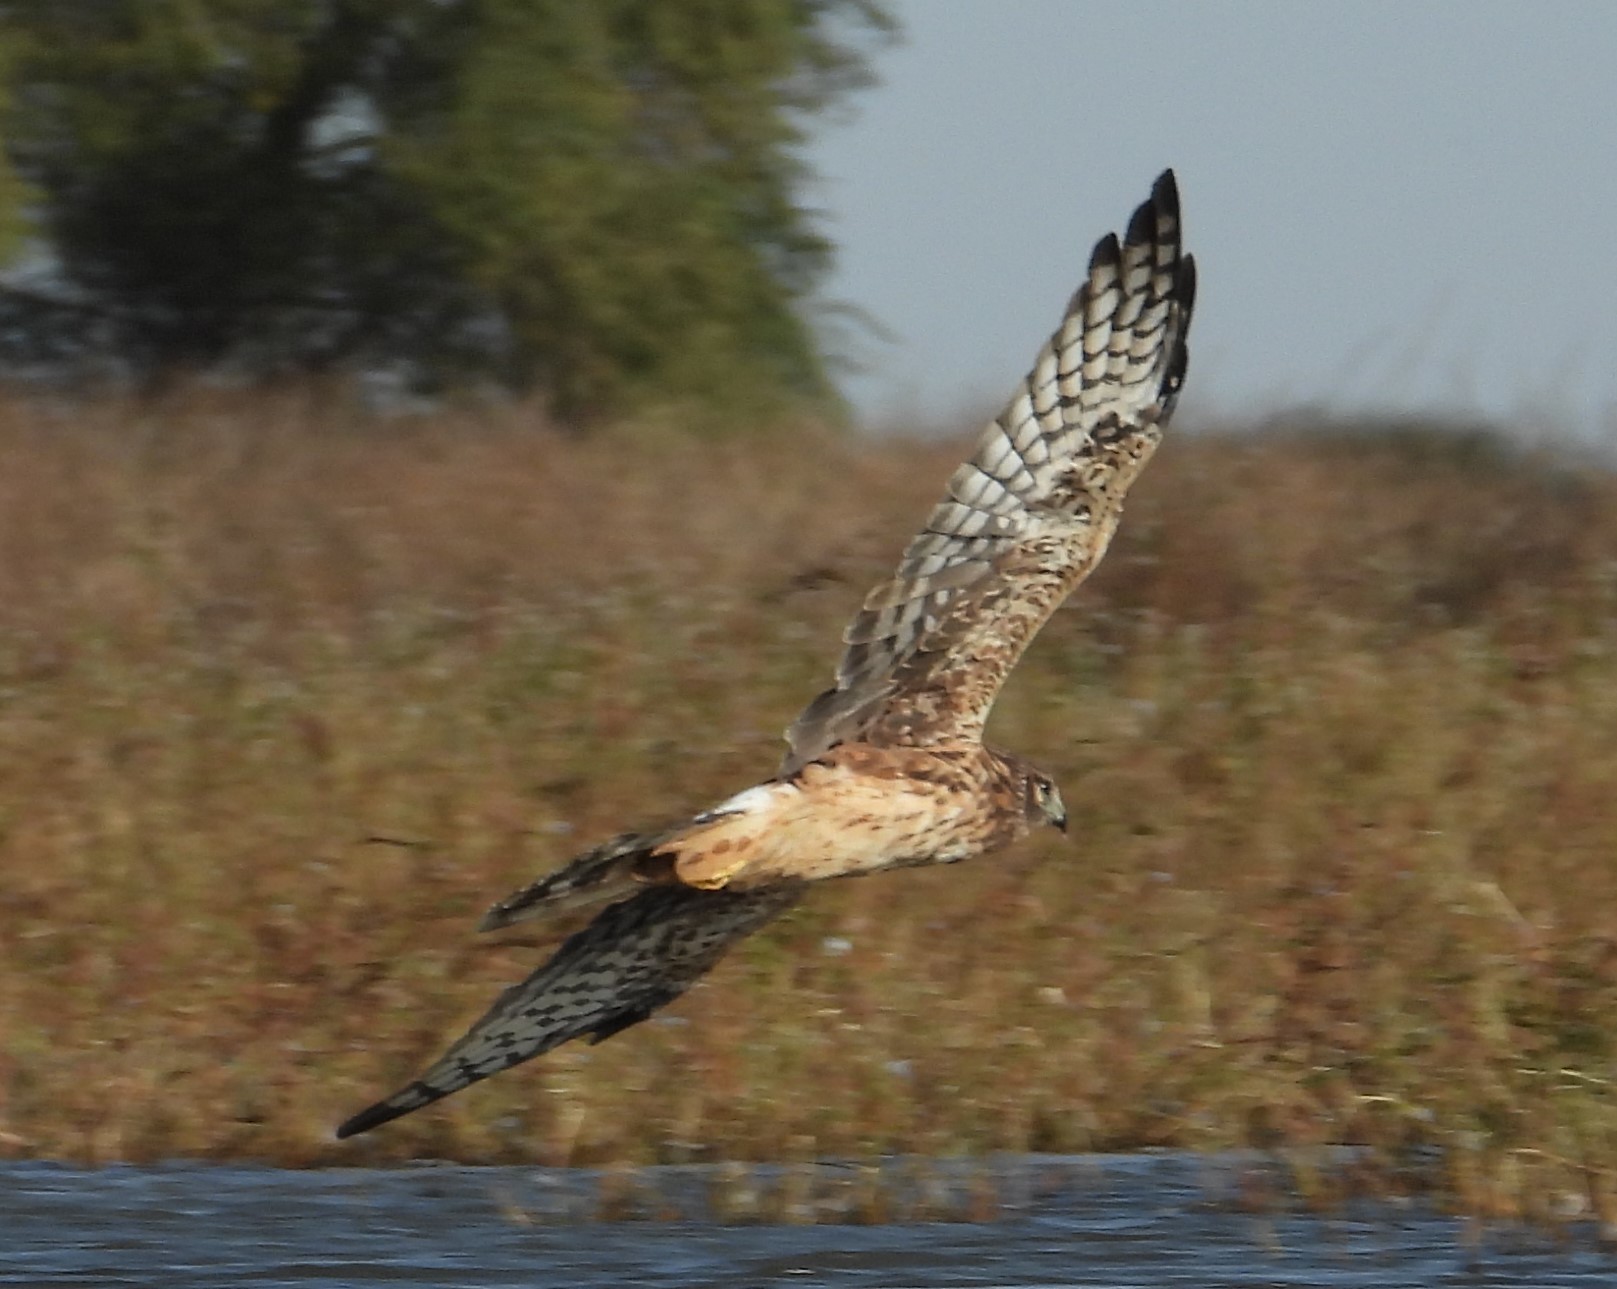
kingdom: Animalia
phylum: Chordata
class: Aves
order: Accipitriformes
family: Accipitridae
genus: Circus
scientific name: Circus cyaneus
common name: Hen harrier
